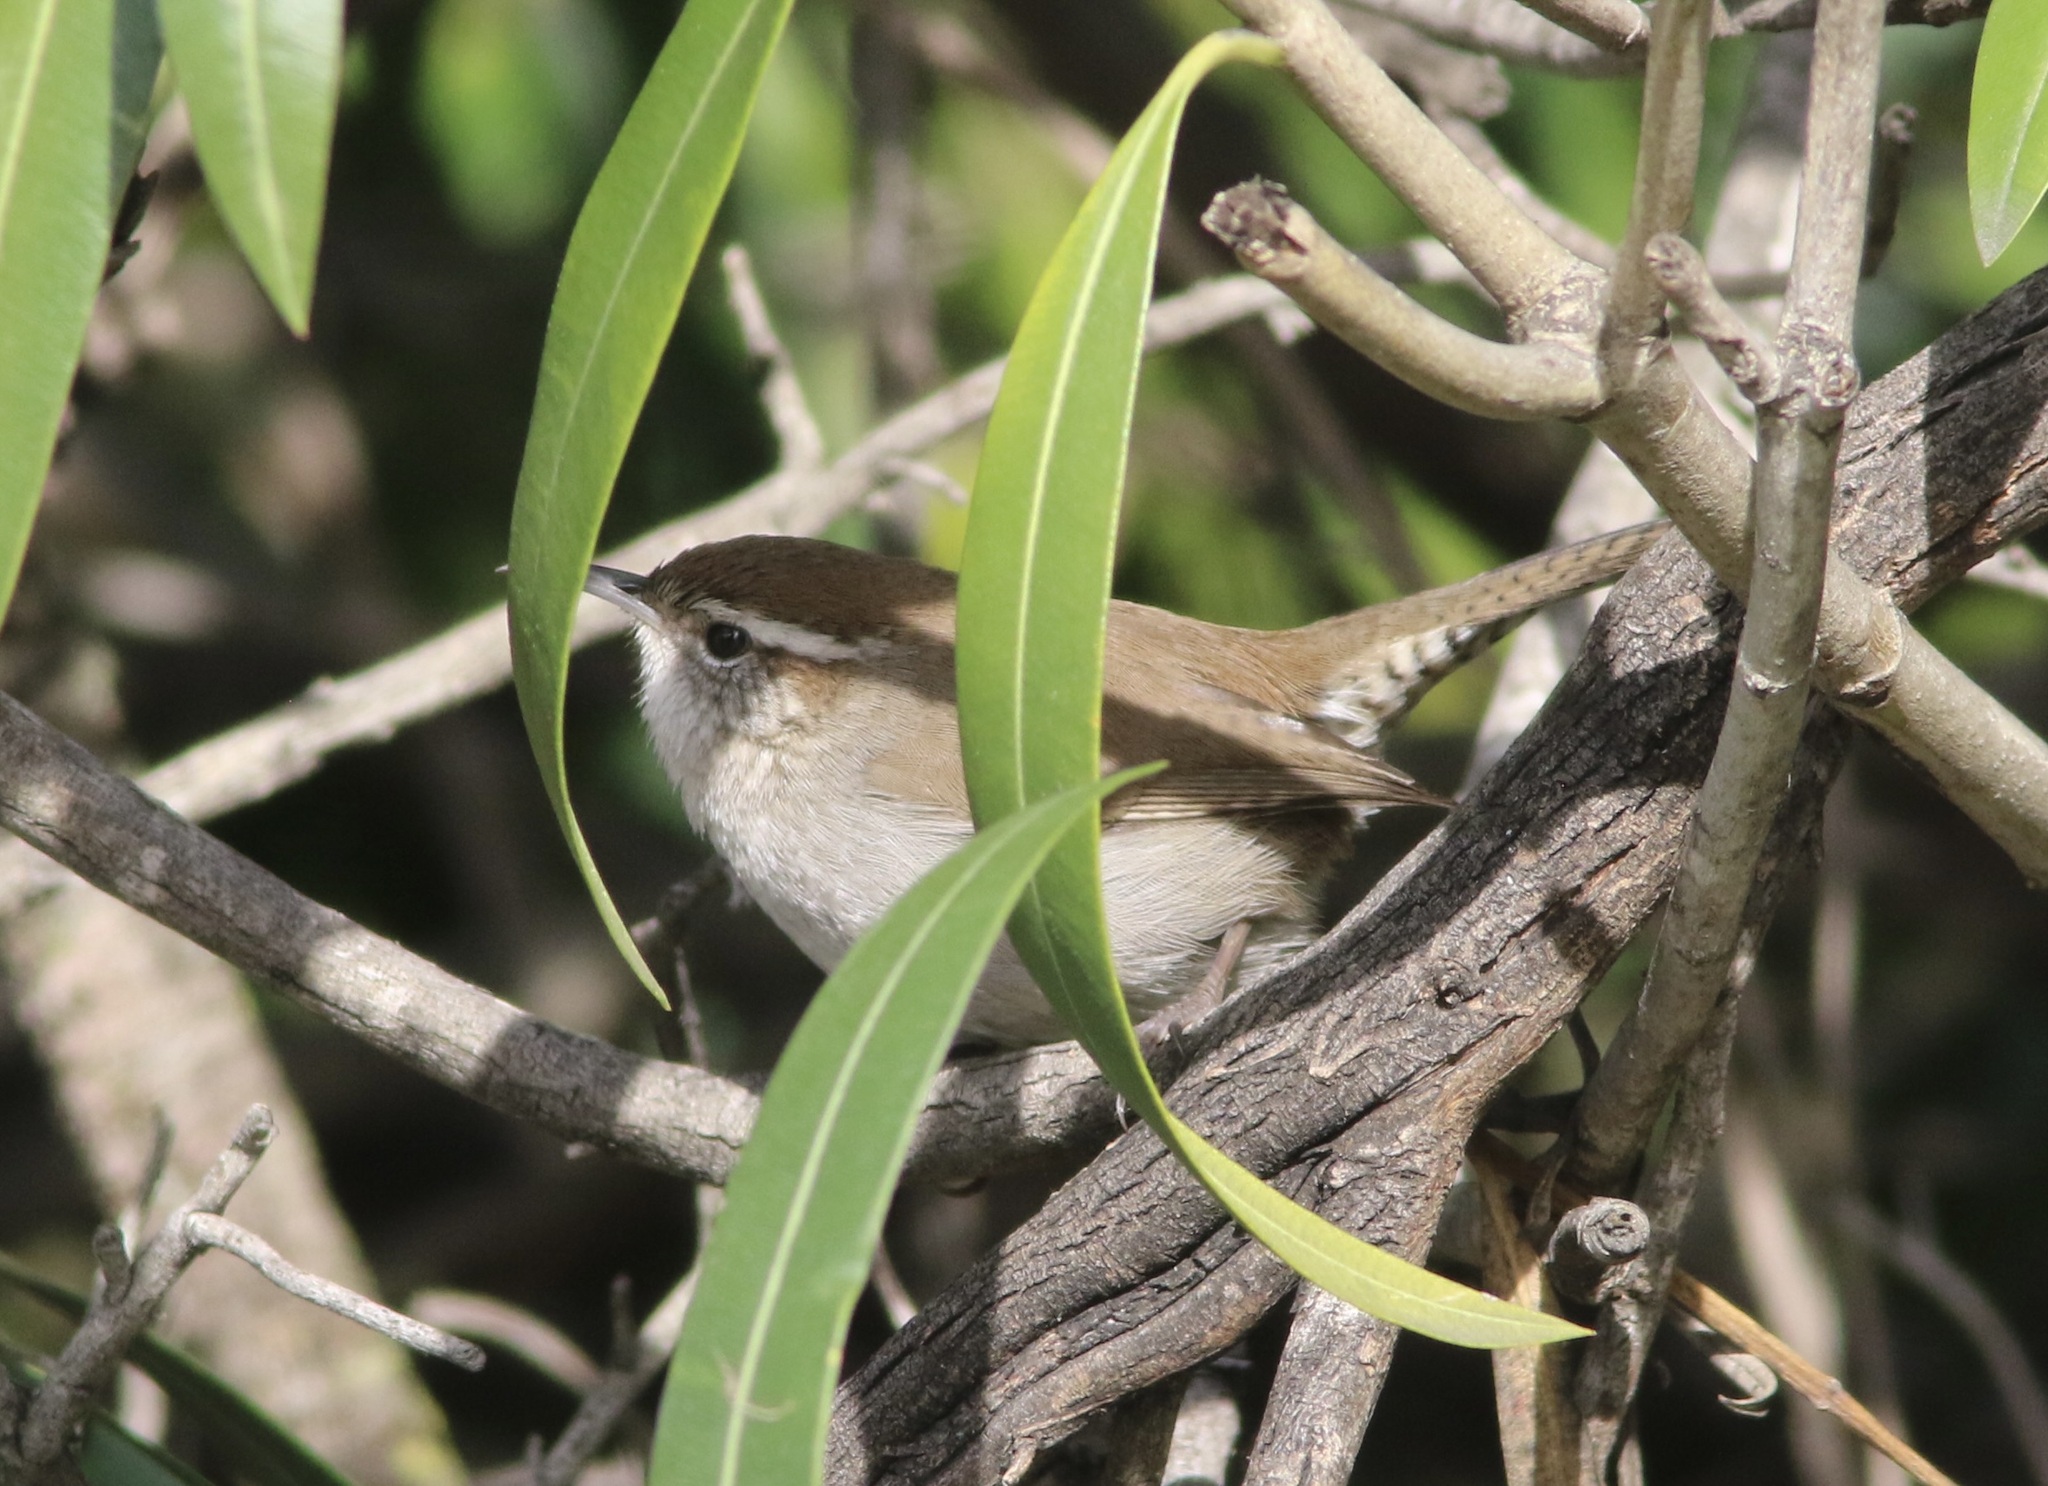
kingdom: Animalia
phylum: Chordata
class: Aves
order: Passeriformes
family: Troglodytidae
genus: Thryomanes
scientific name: Thryomanes bewickii
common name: Bewick's wren
